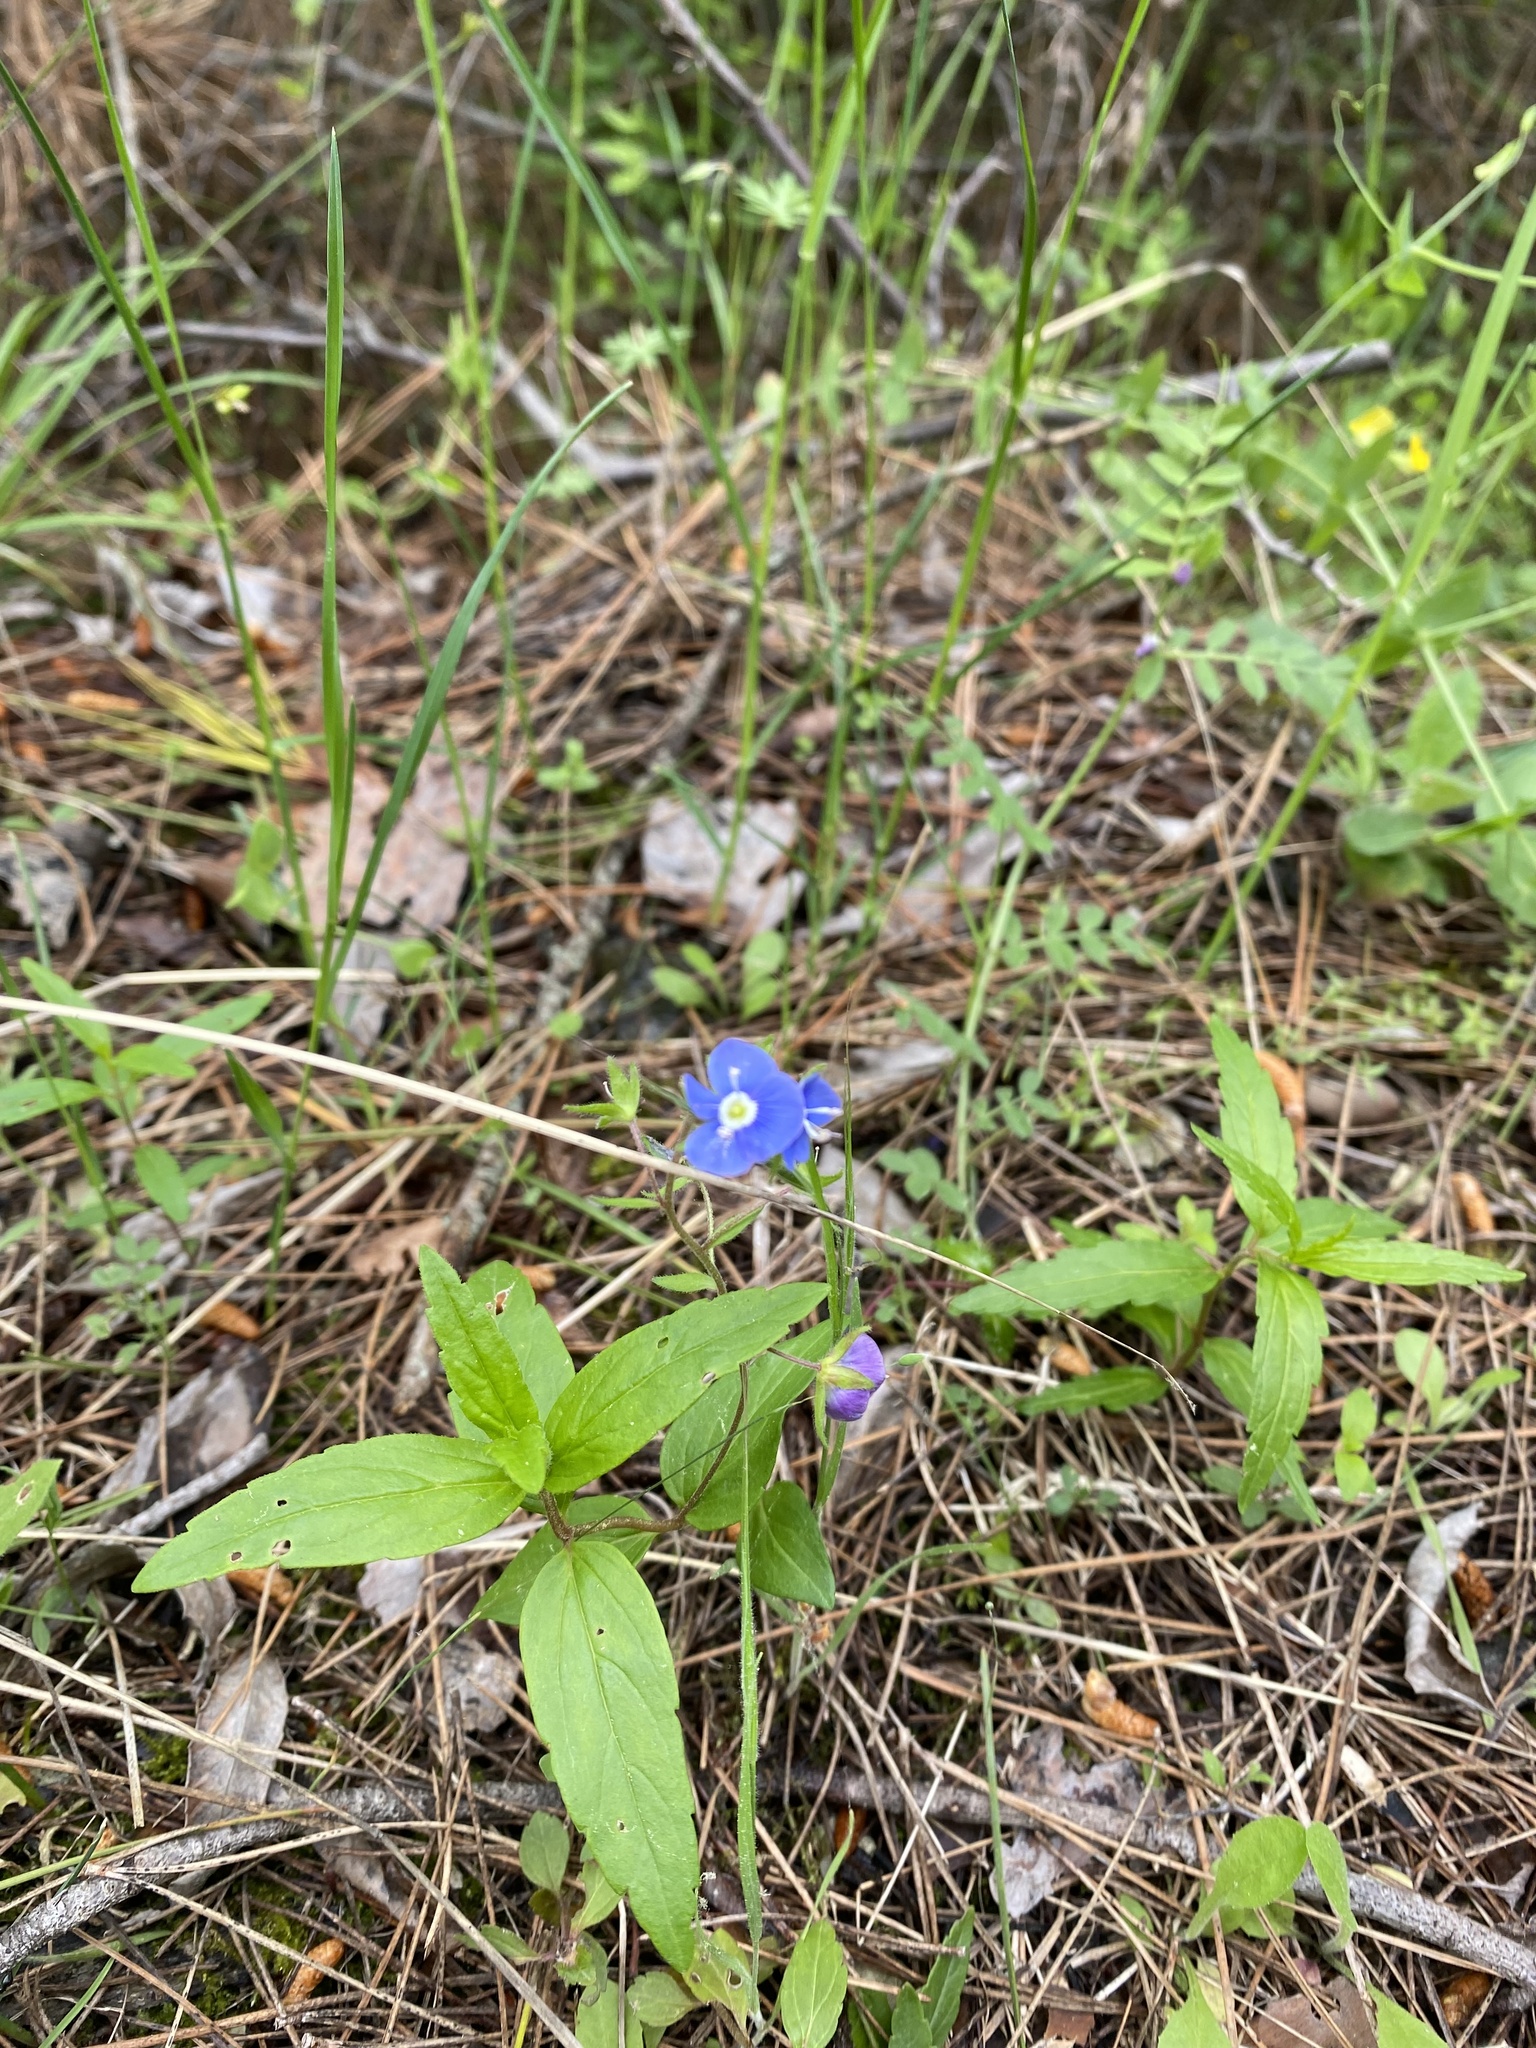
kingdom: Plantae
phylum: Tracheophyta
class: Magnoliopsida
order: Lamiales
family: Plantaginaceae
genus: Veronica
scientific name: Veronica
